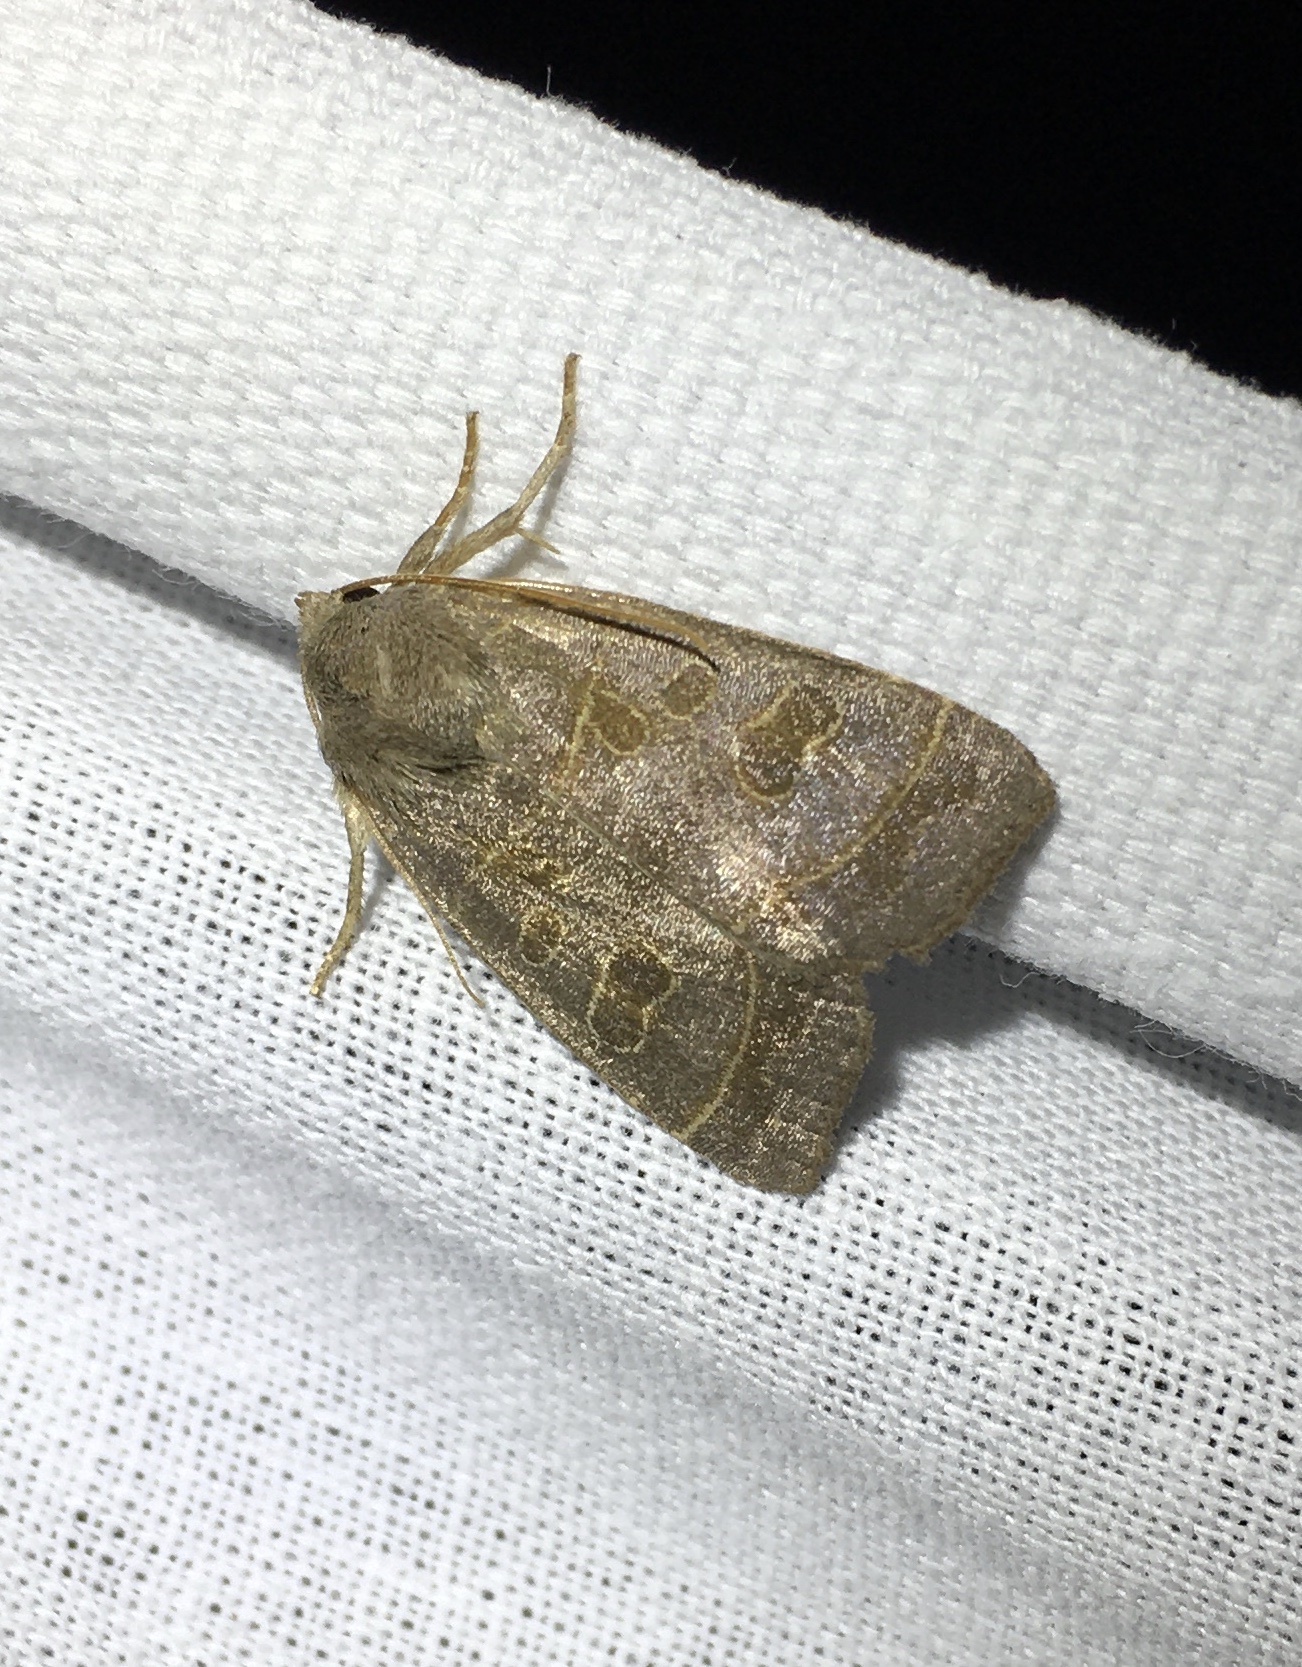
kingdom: Animalia
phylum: Arthropoda
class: Insecta
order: Lepidoptera
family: Noctuidae
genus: Ipimorpha
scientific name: Ipimorpha subtusa
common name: Olive
